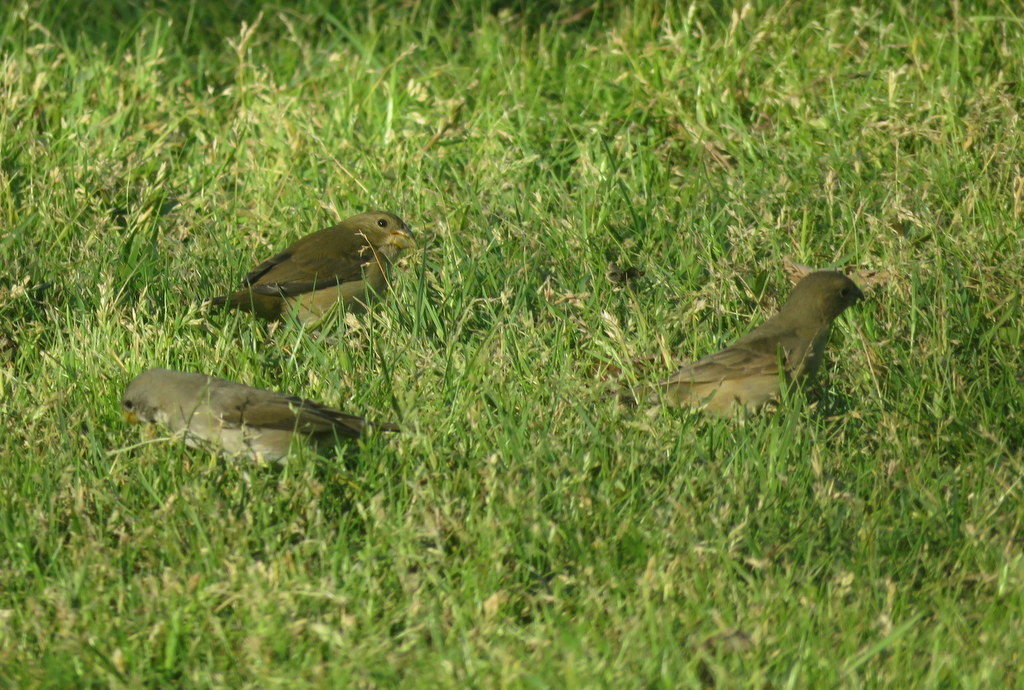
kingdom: Animalia
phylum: Chordata
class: Aves
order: Passeriformes
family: Thraupidae
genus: Sporophila
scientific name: Sporophila caerulescens
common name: Double-collared seedeater
